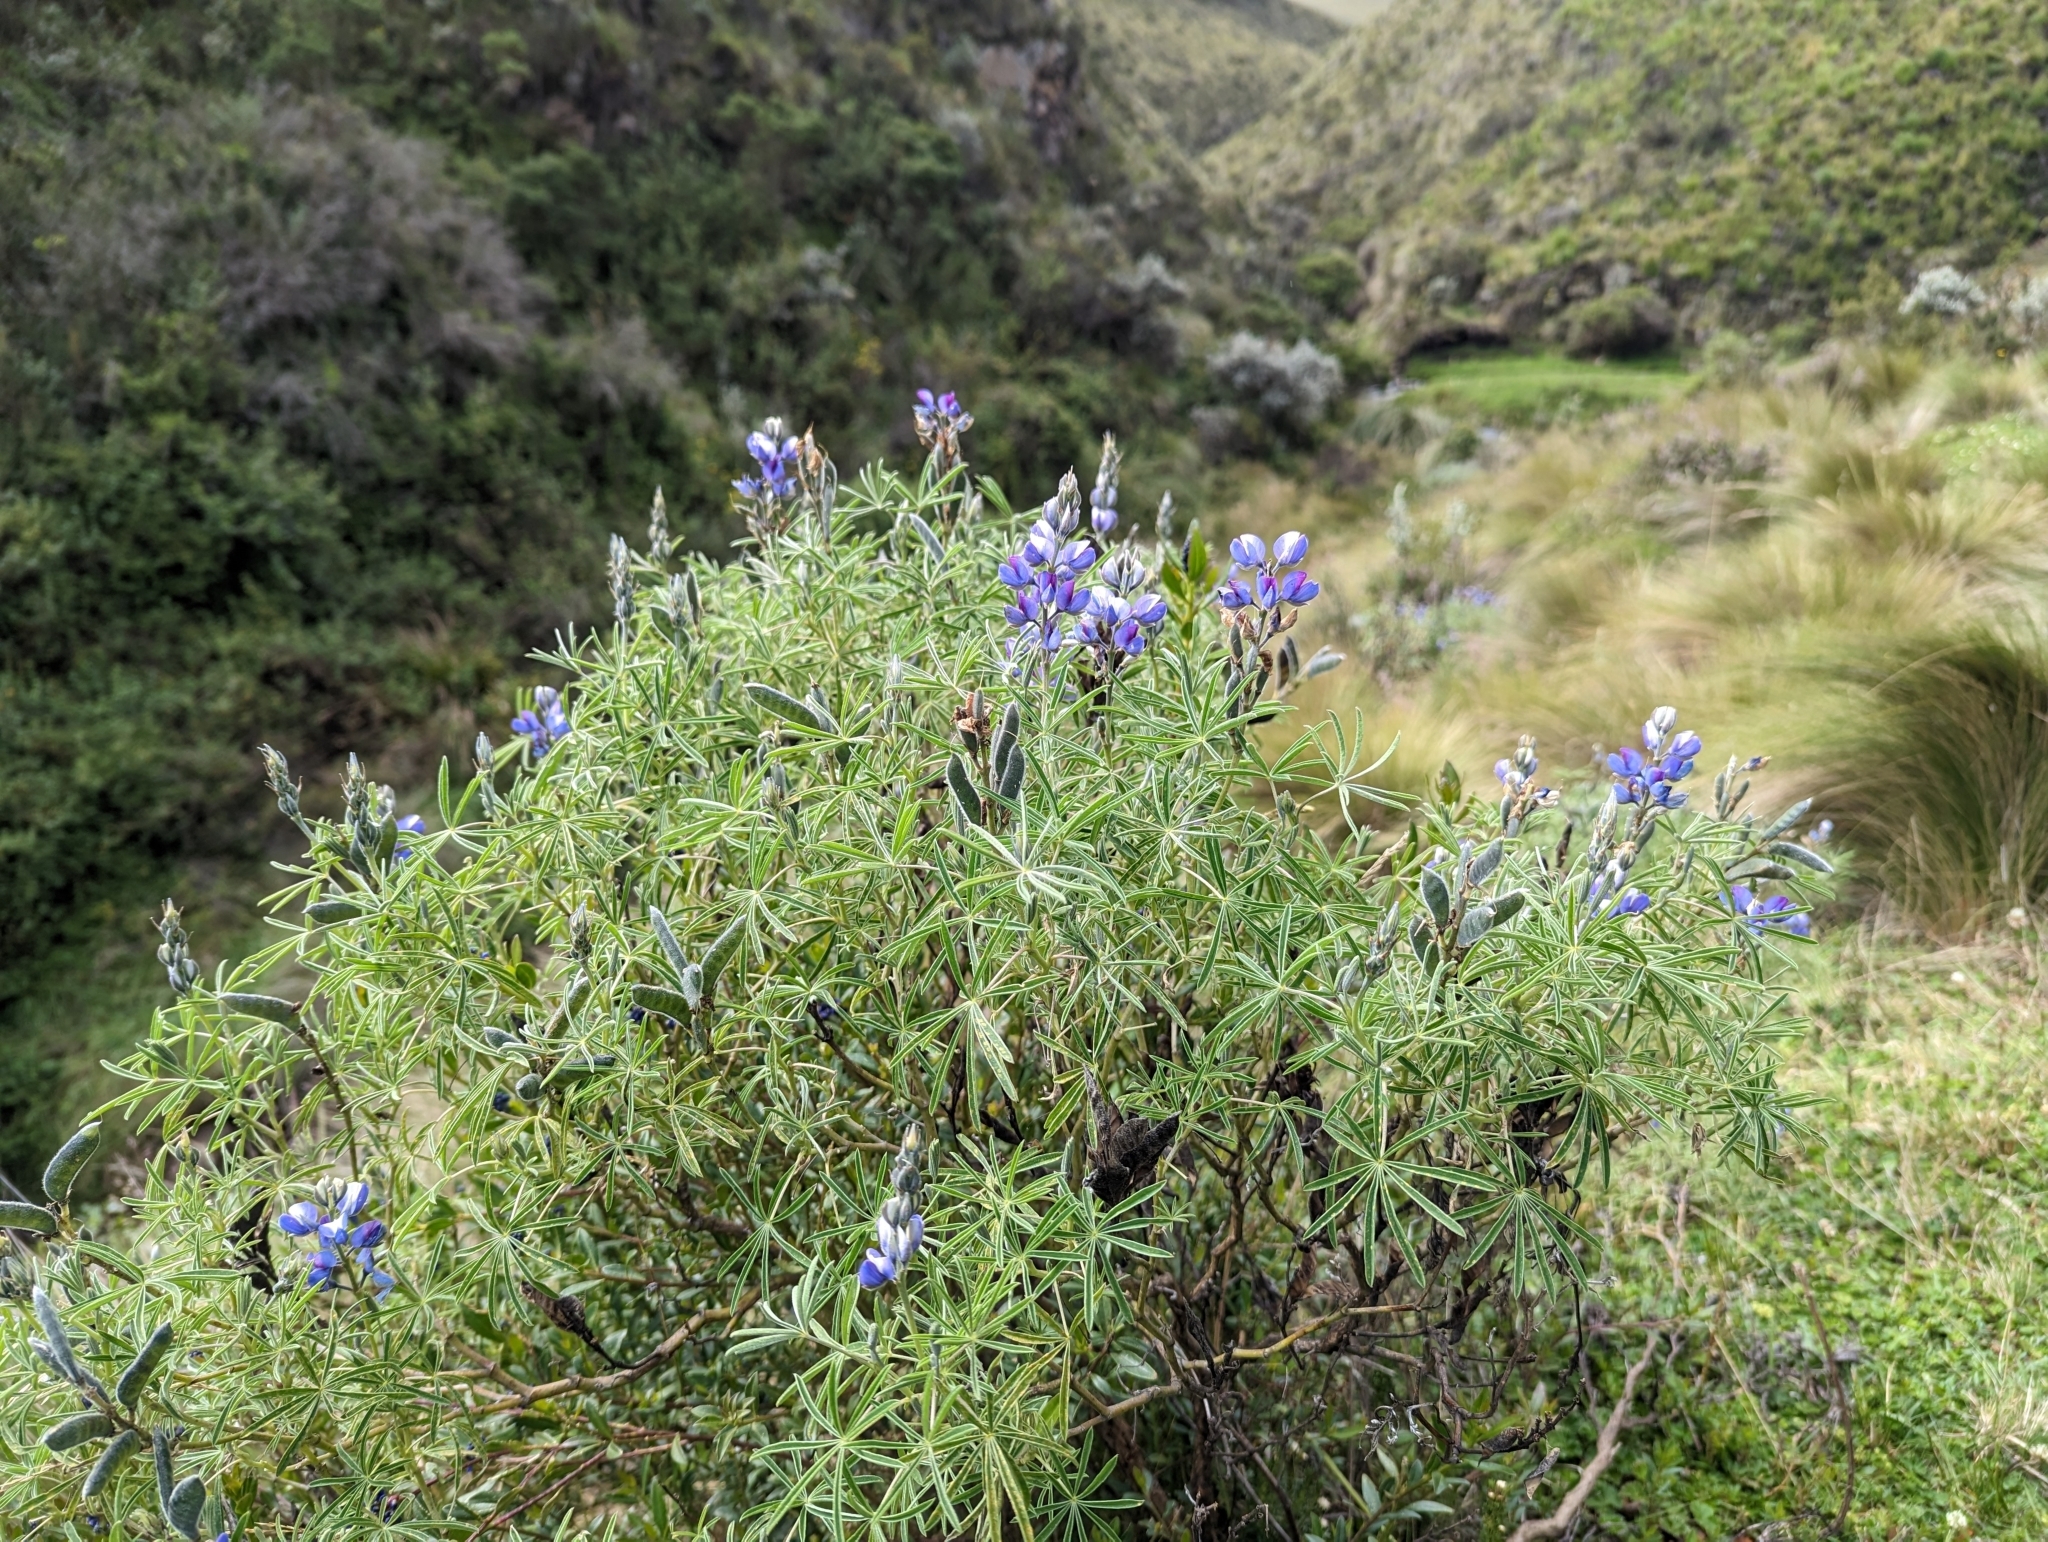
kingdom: Plantae
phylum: Tracheophyta
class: Magnoliopsida
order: Fabales
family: Fabaceae
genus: Lupinus
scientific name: Lupinus pubescens
